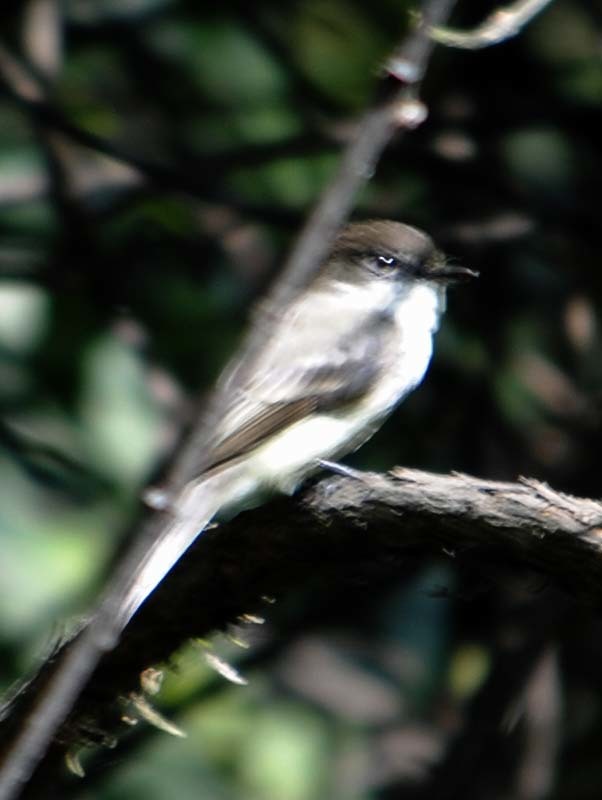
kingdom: Animalia
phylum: Chordata
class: Aves
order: Passeriformes
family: Tyrannidae
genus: Sayornis
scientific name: Sayornis phoebe
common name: Eastern phoebe
